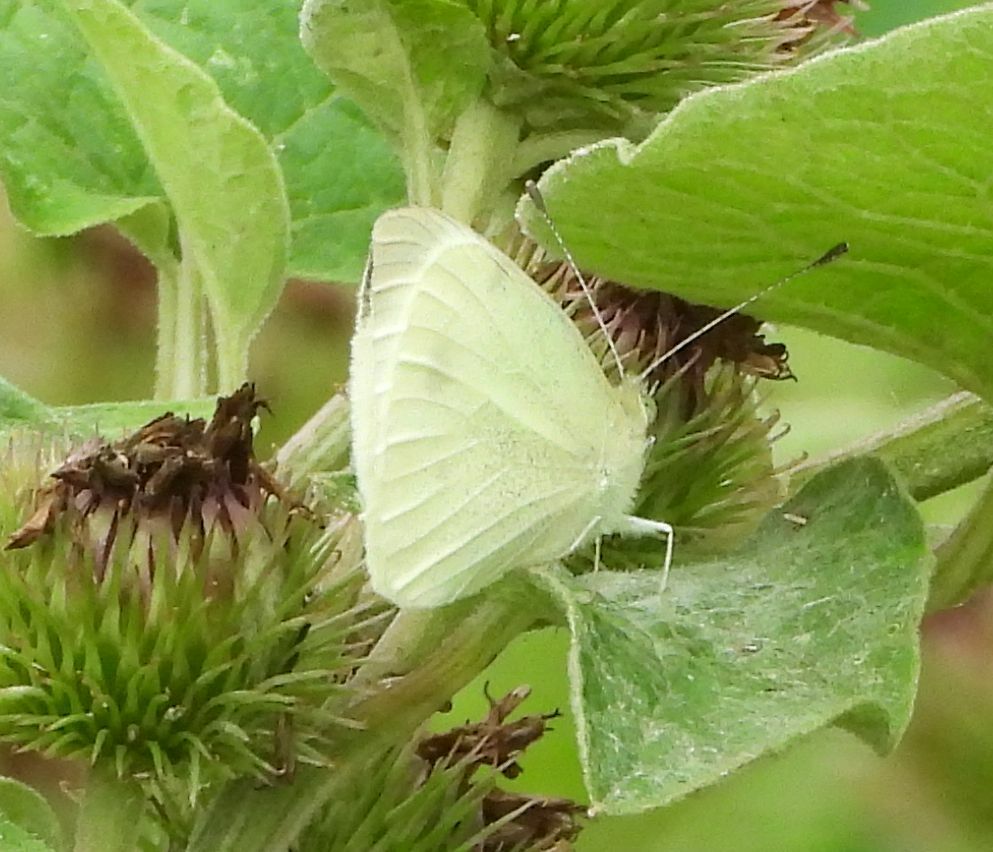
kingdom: Animalia
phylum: Arthropoda
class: Insecta
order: Lepidoptera
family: Pieridae
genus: Pieris
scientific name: Pieris rapae
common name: Small white
